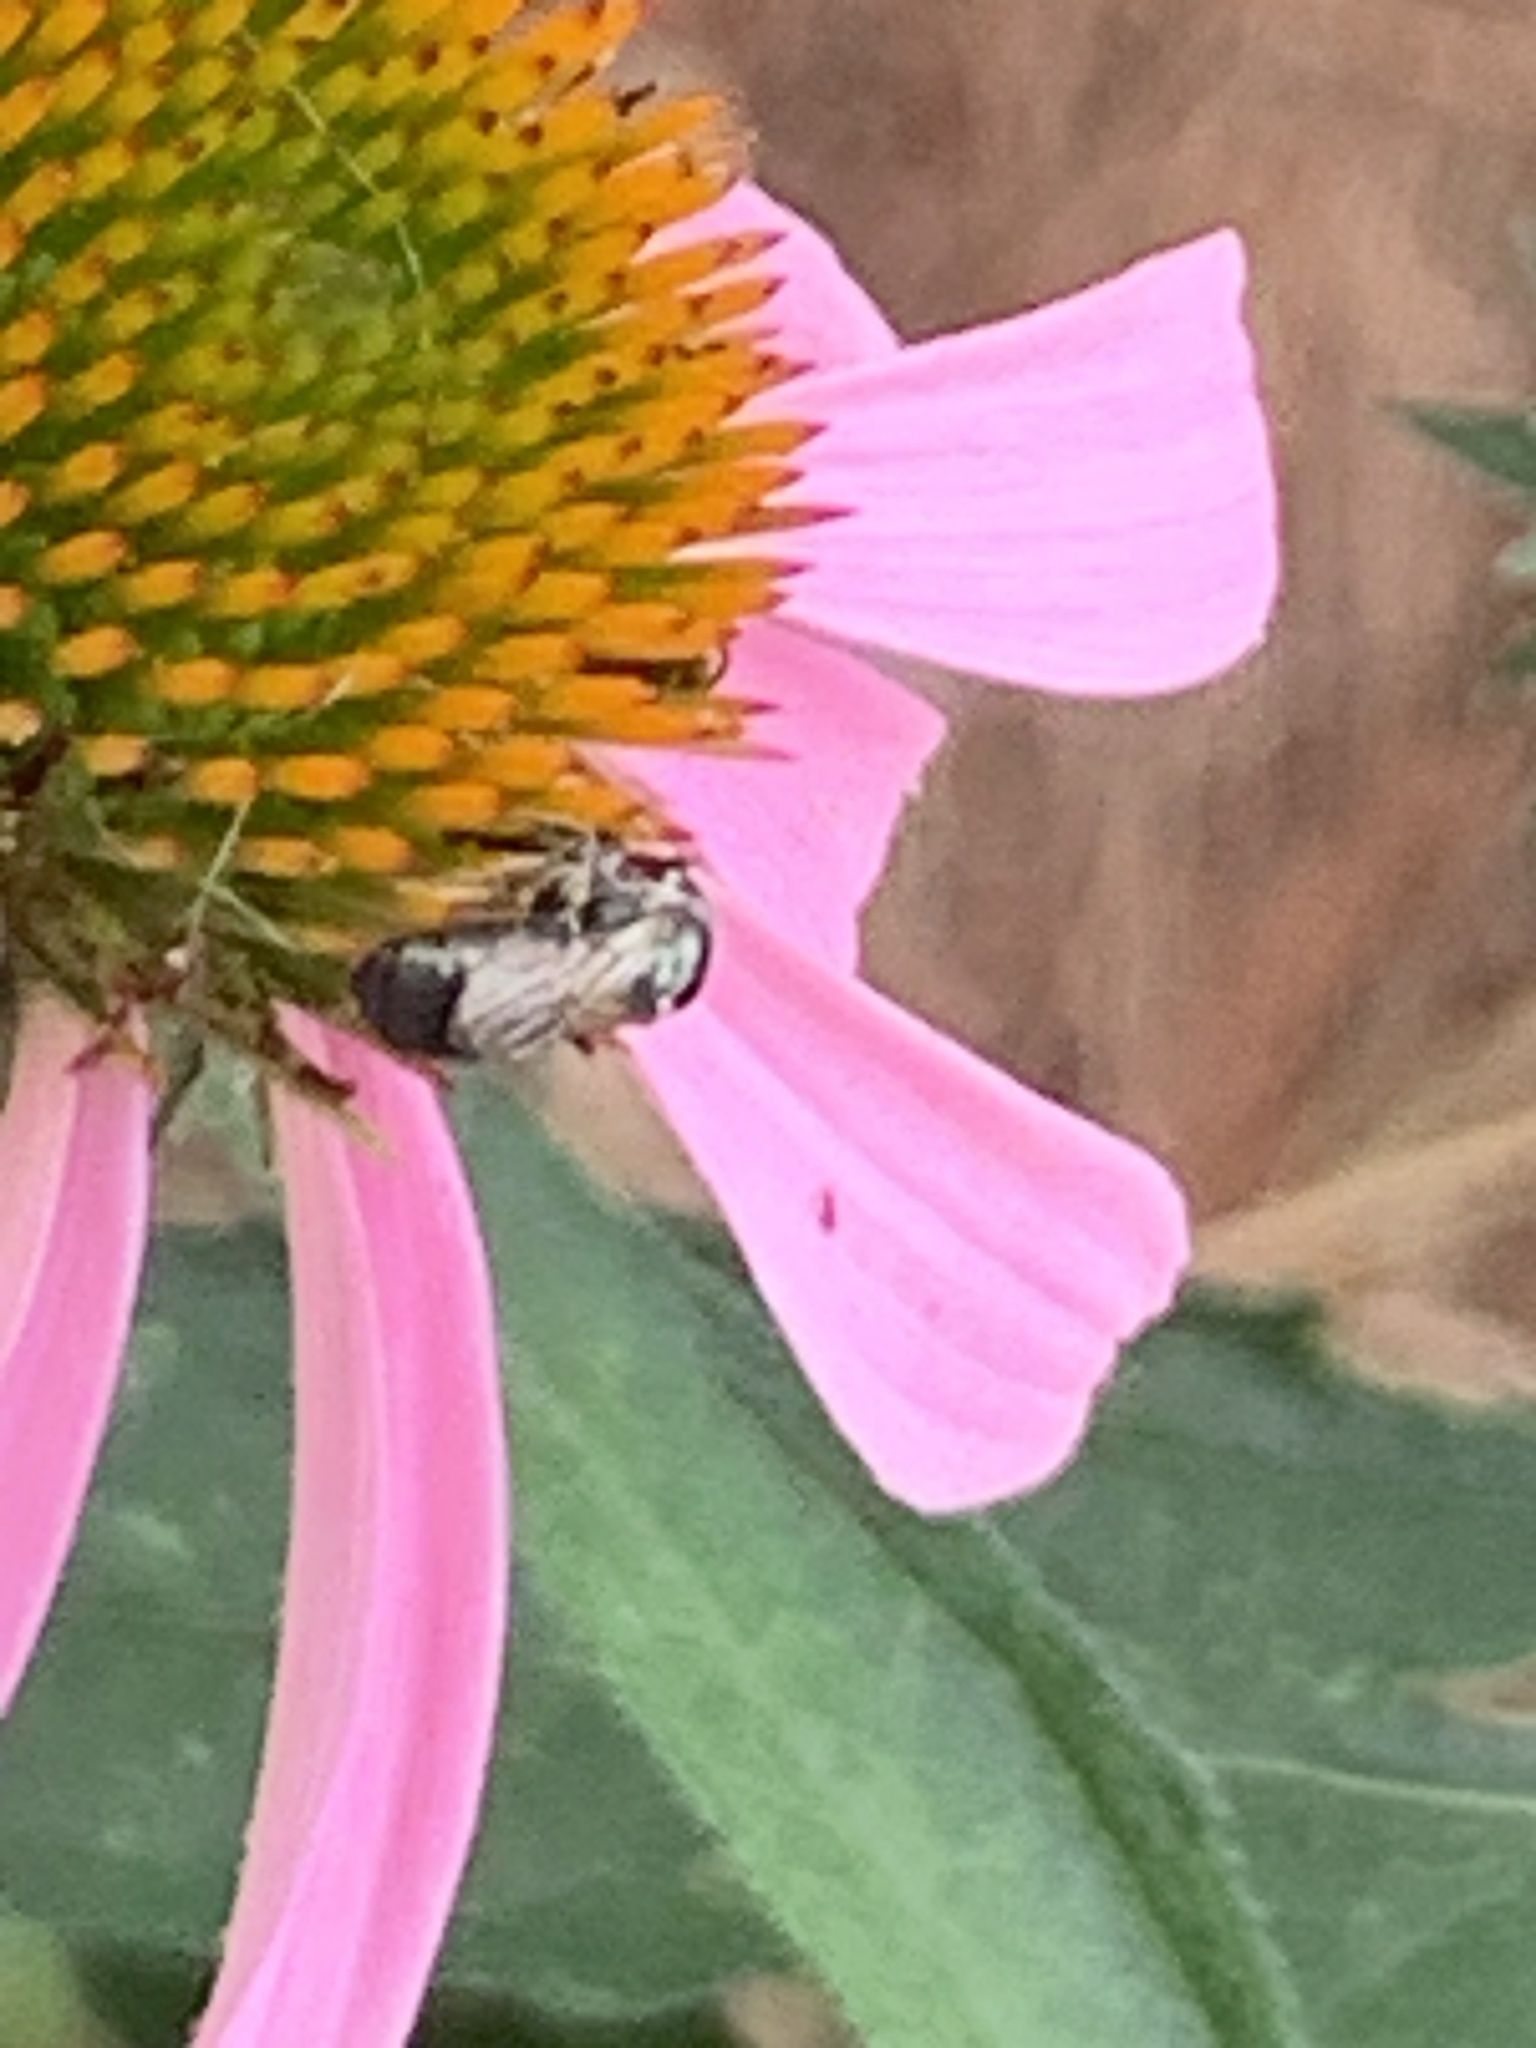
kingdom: Animalia
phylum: Arthropoda
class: Insecta
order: Hymenoptera
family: Apidae
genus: Zadontomerus
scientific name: Zadontomerus
